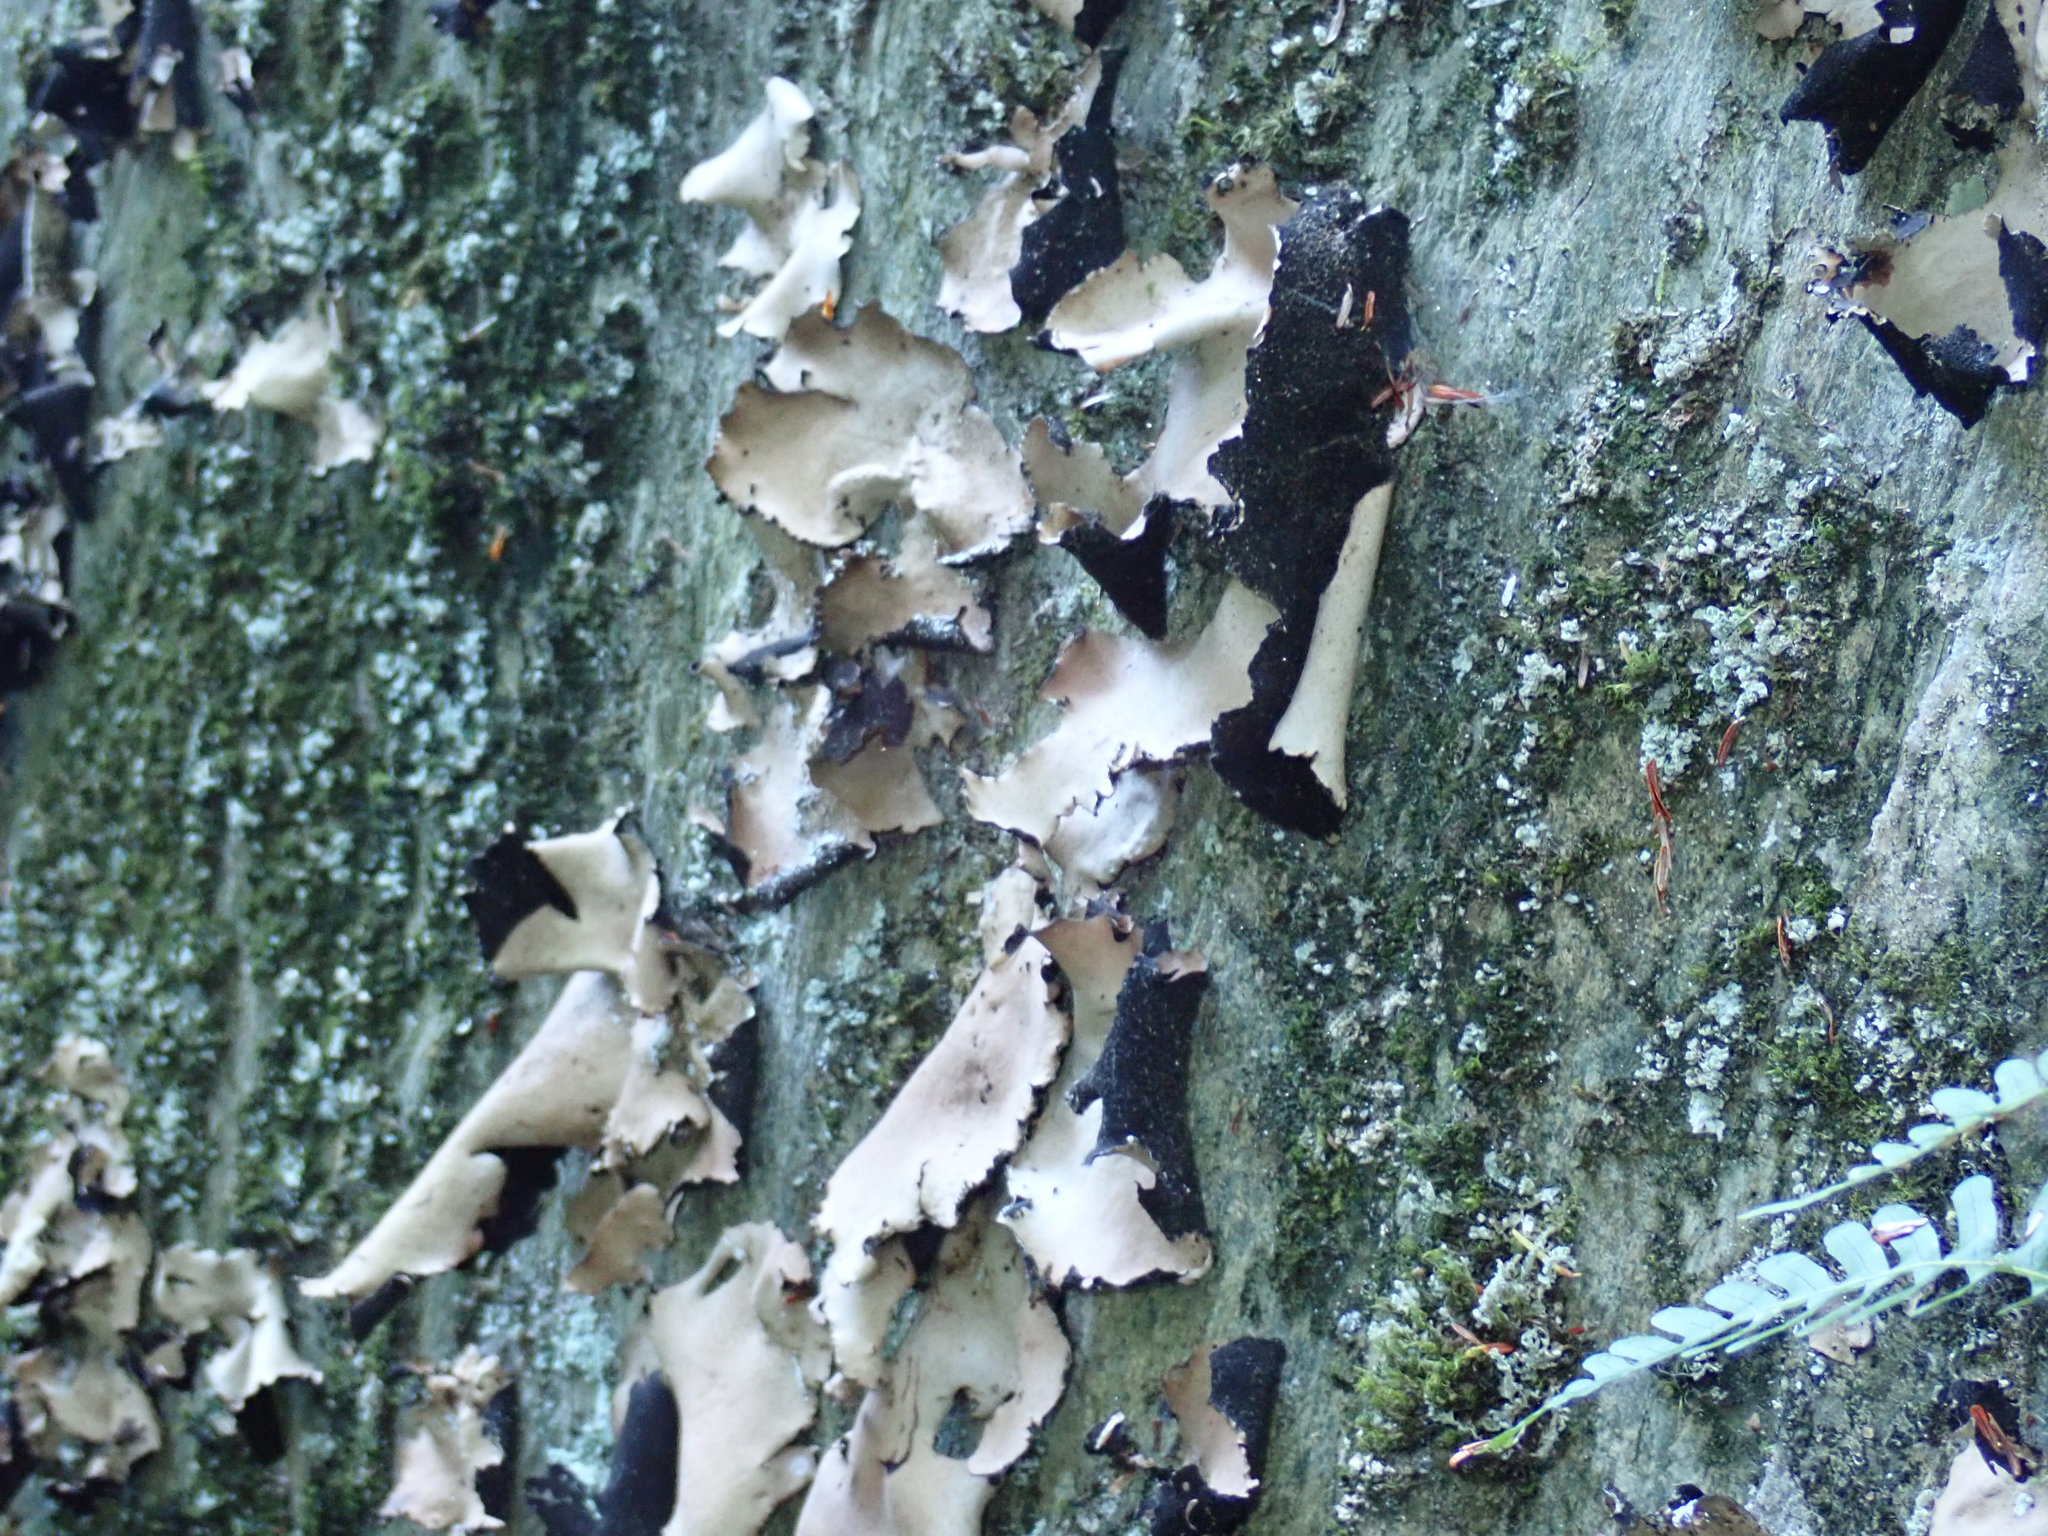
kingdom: Fungi
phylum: Ascomycota
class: Lecanoromycetes
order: Umbilicariales
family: Umbilicariaceae
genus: Umbilicaria
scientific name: Umbilicaria mammulata
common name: Smooth rock tripe
